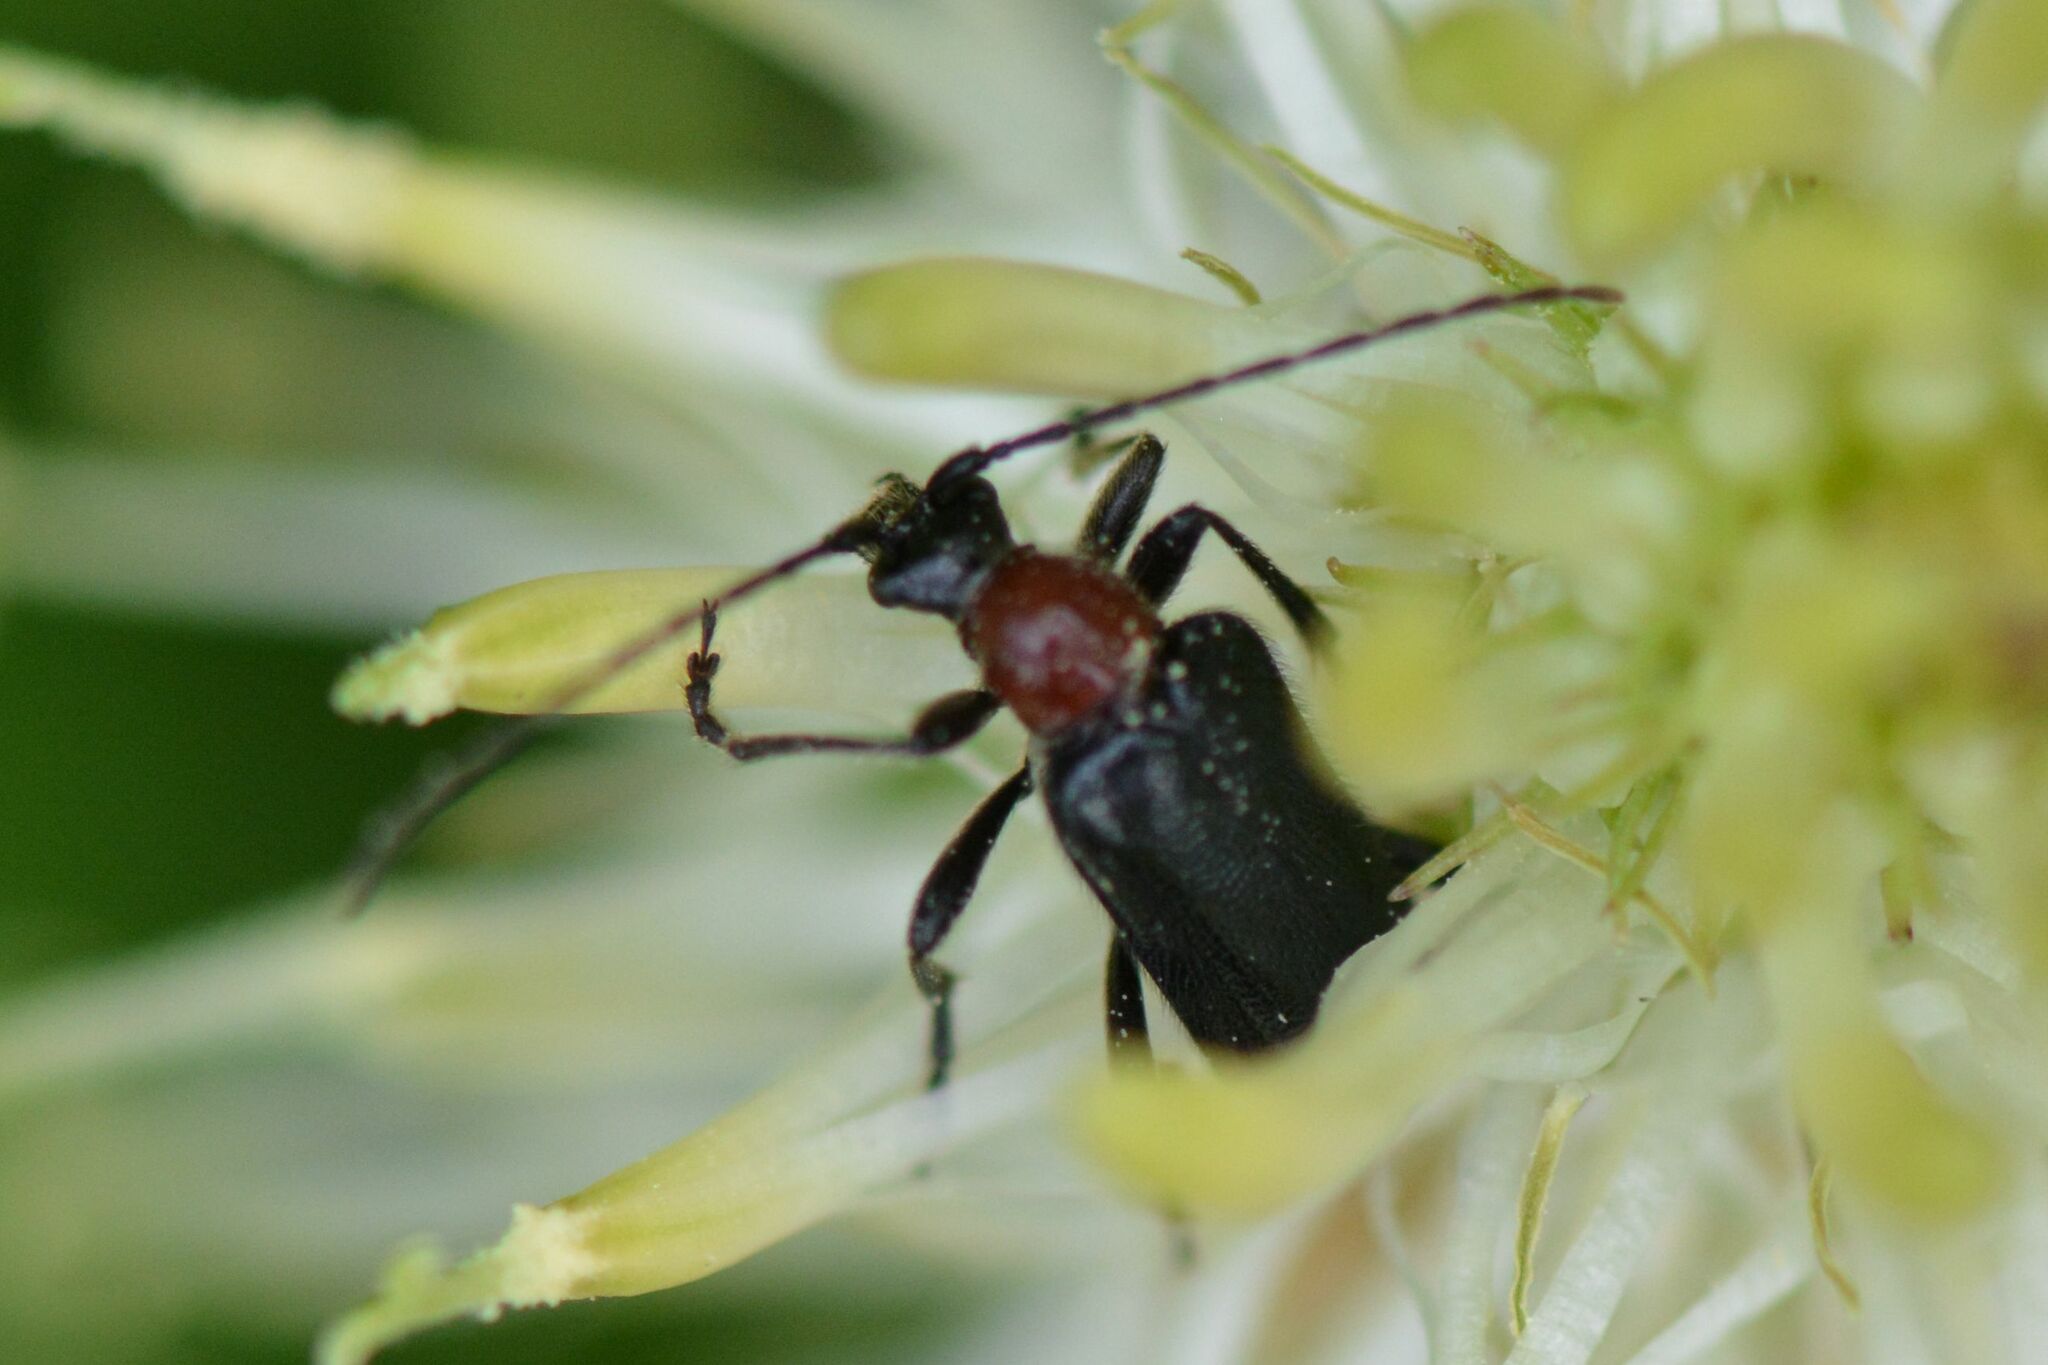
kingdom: Animalia
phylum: Arthropoda
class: Insecta
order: Coleoptera
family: Cerambycidae
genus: Dinoptera
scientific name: Dinoptera collaris
